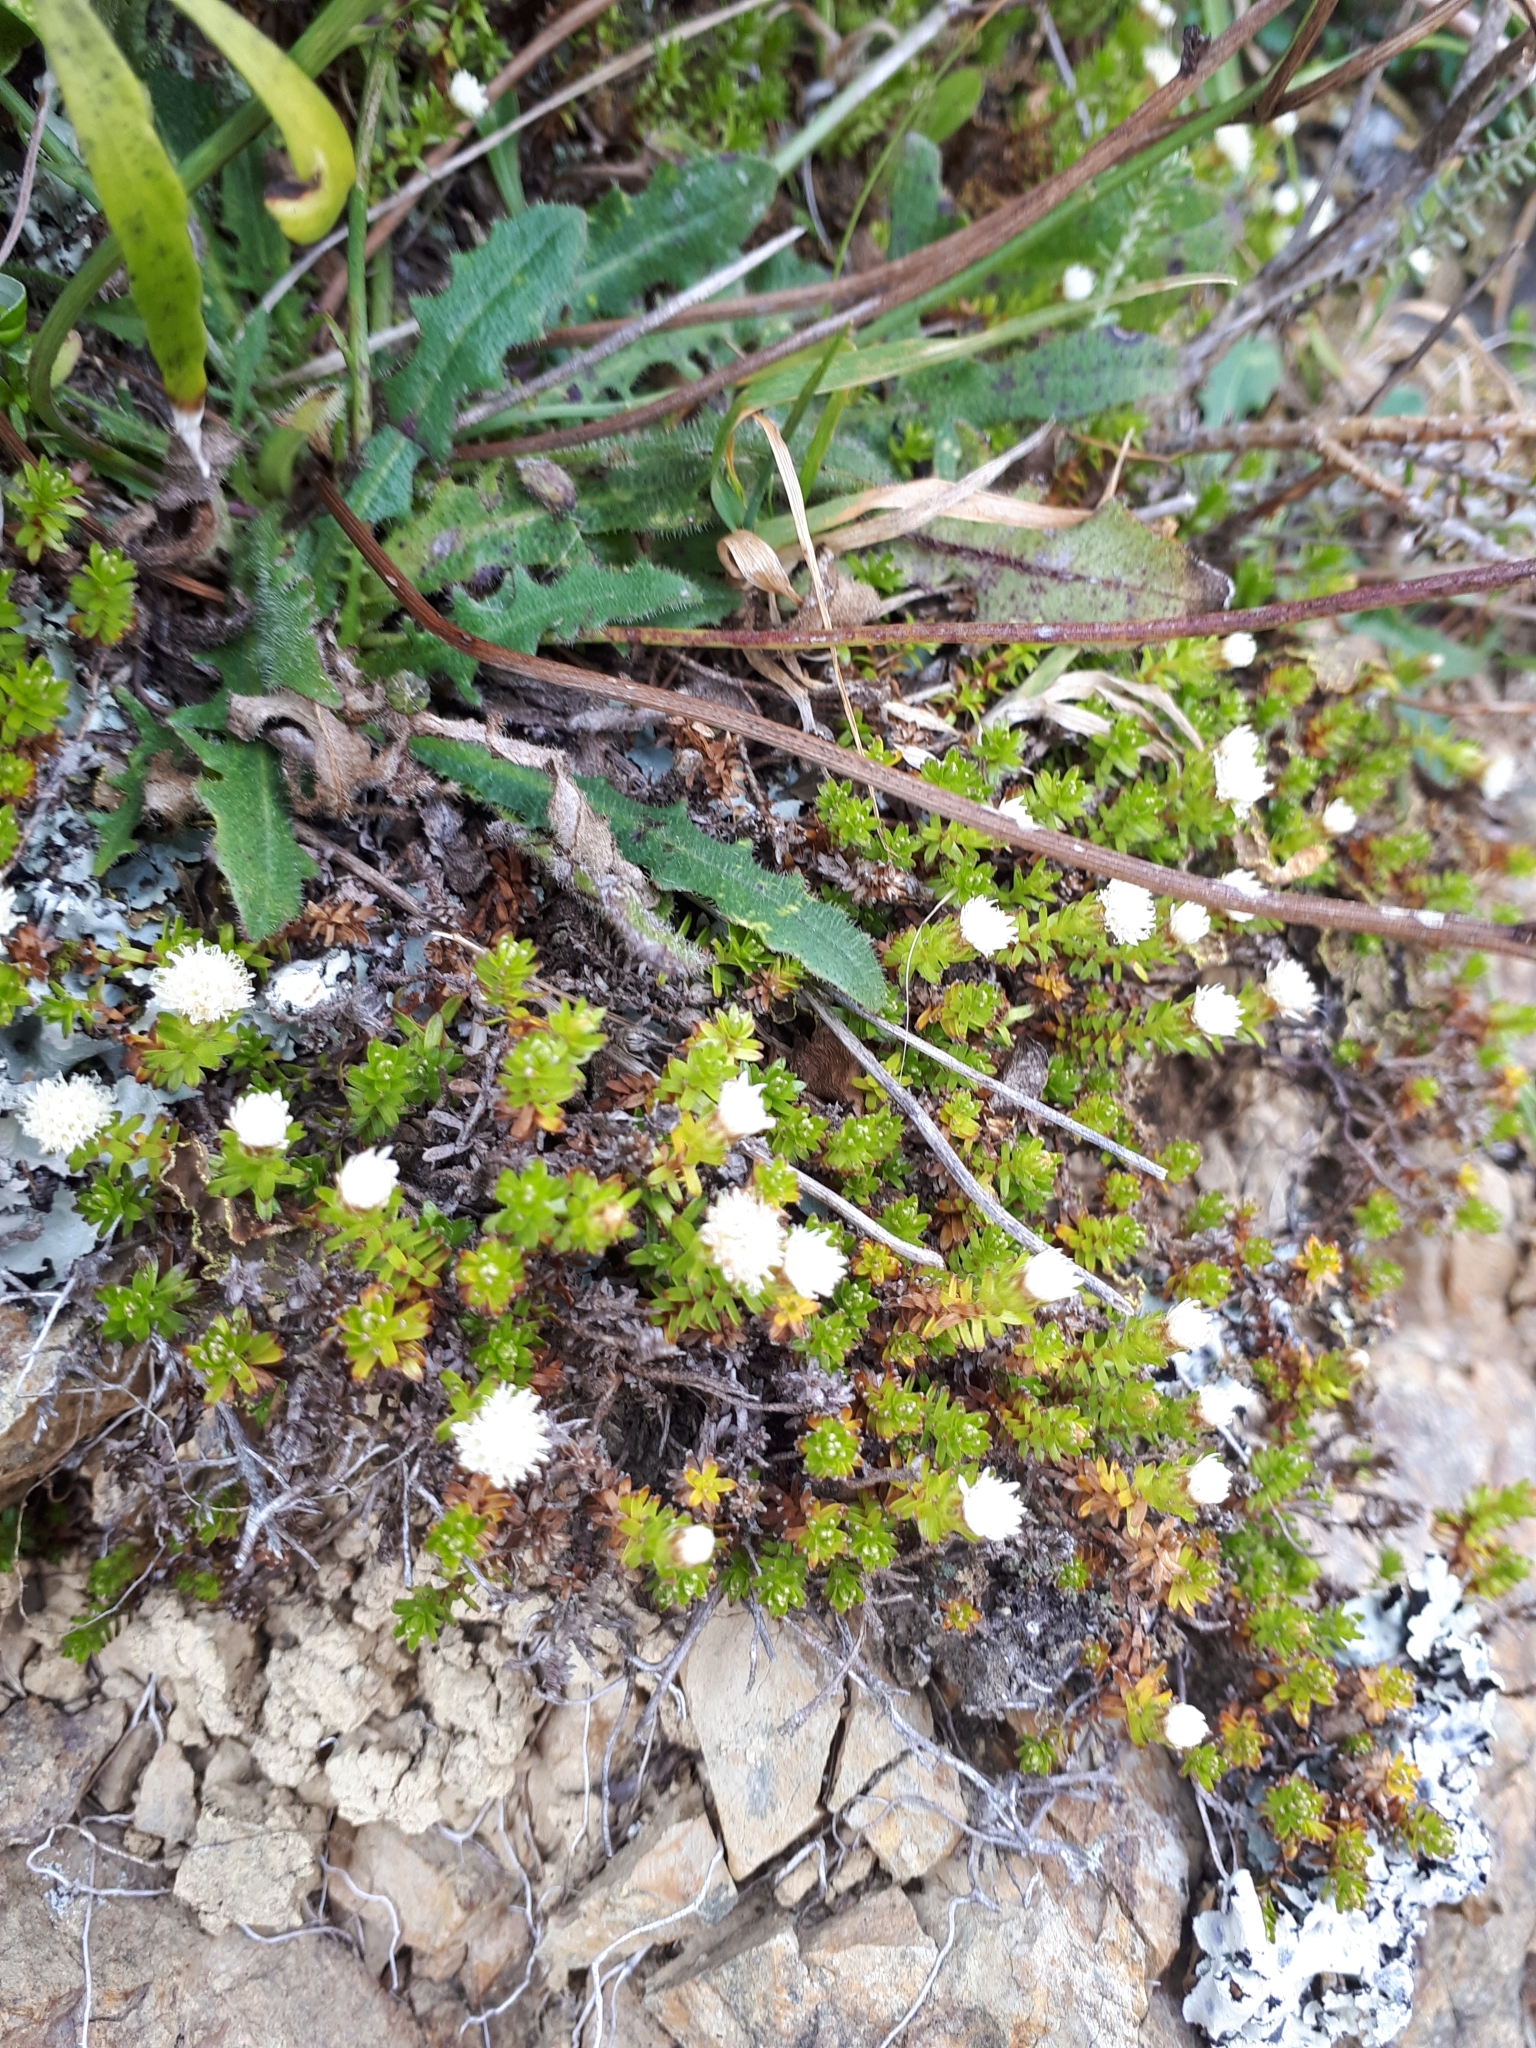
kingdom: Plantae
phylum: Tracheophyta
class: Magnoliopsida
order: Asterales
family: Asteraceae
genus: Raoulia
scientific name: Raoulia glabra
